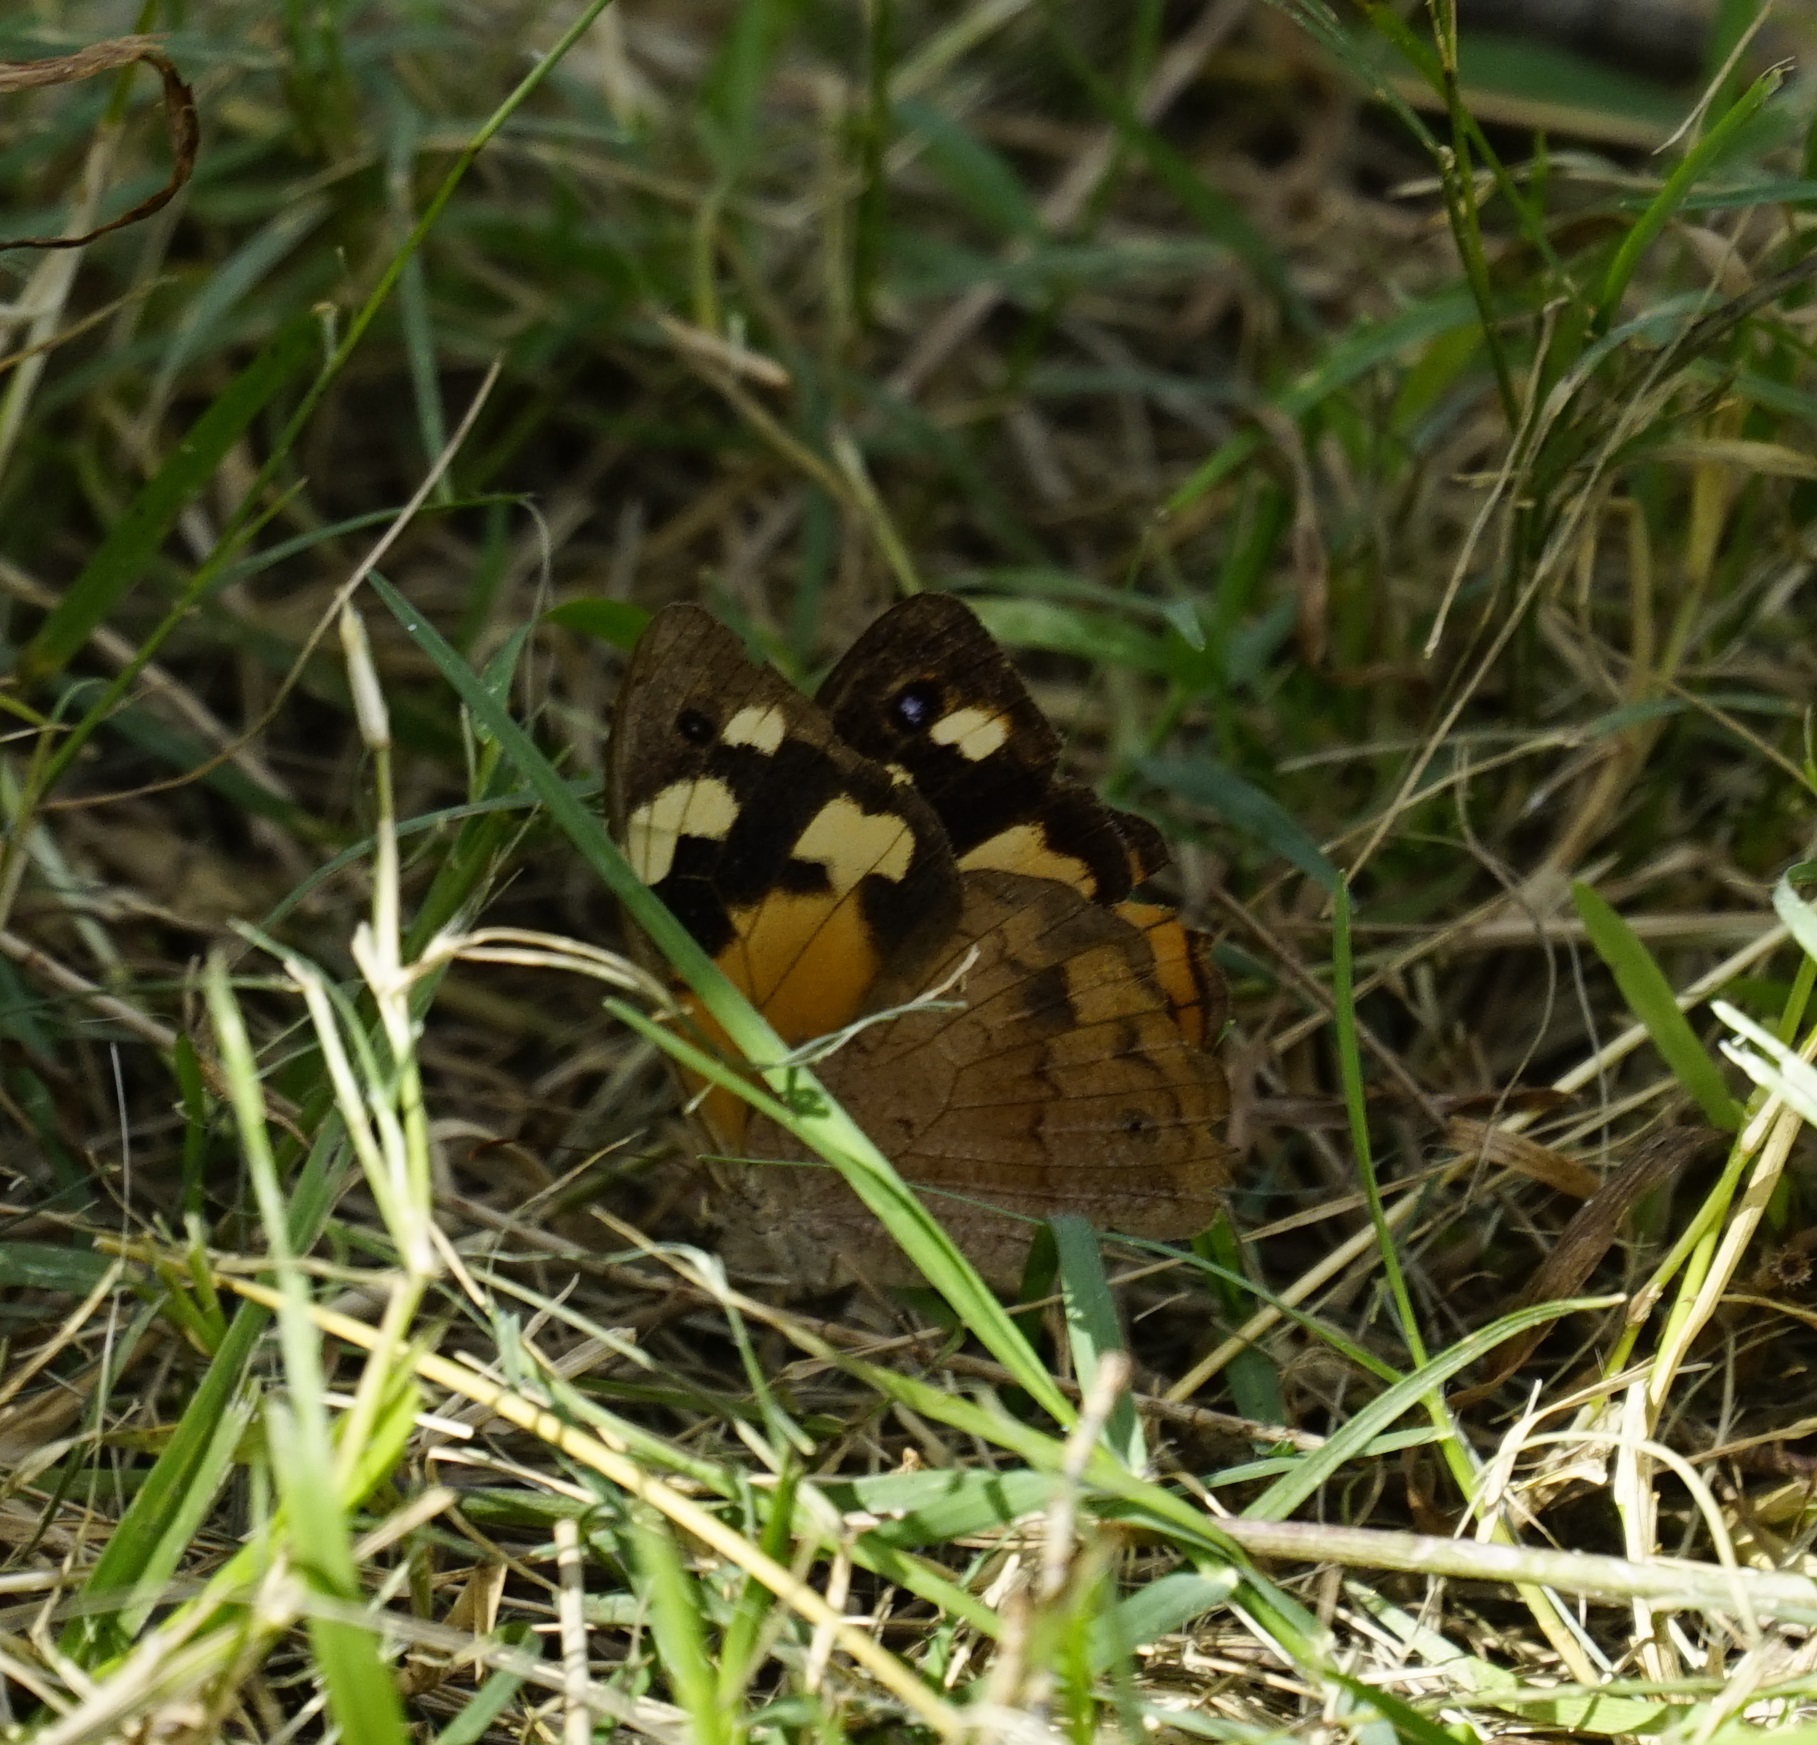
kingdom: Animalia
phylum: Arthropoda
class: Insecta
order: Lepidoptera
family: Nymphalidae
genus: Heteronympha
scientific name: Heteronympha merope
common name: Common brown
